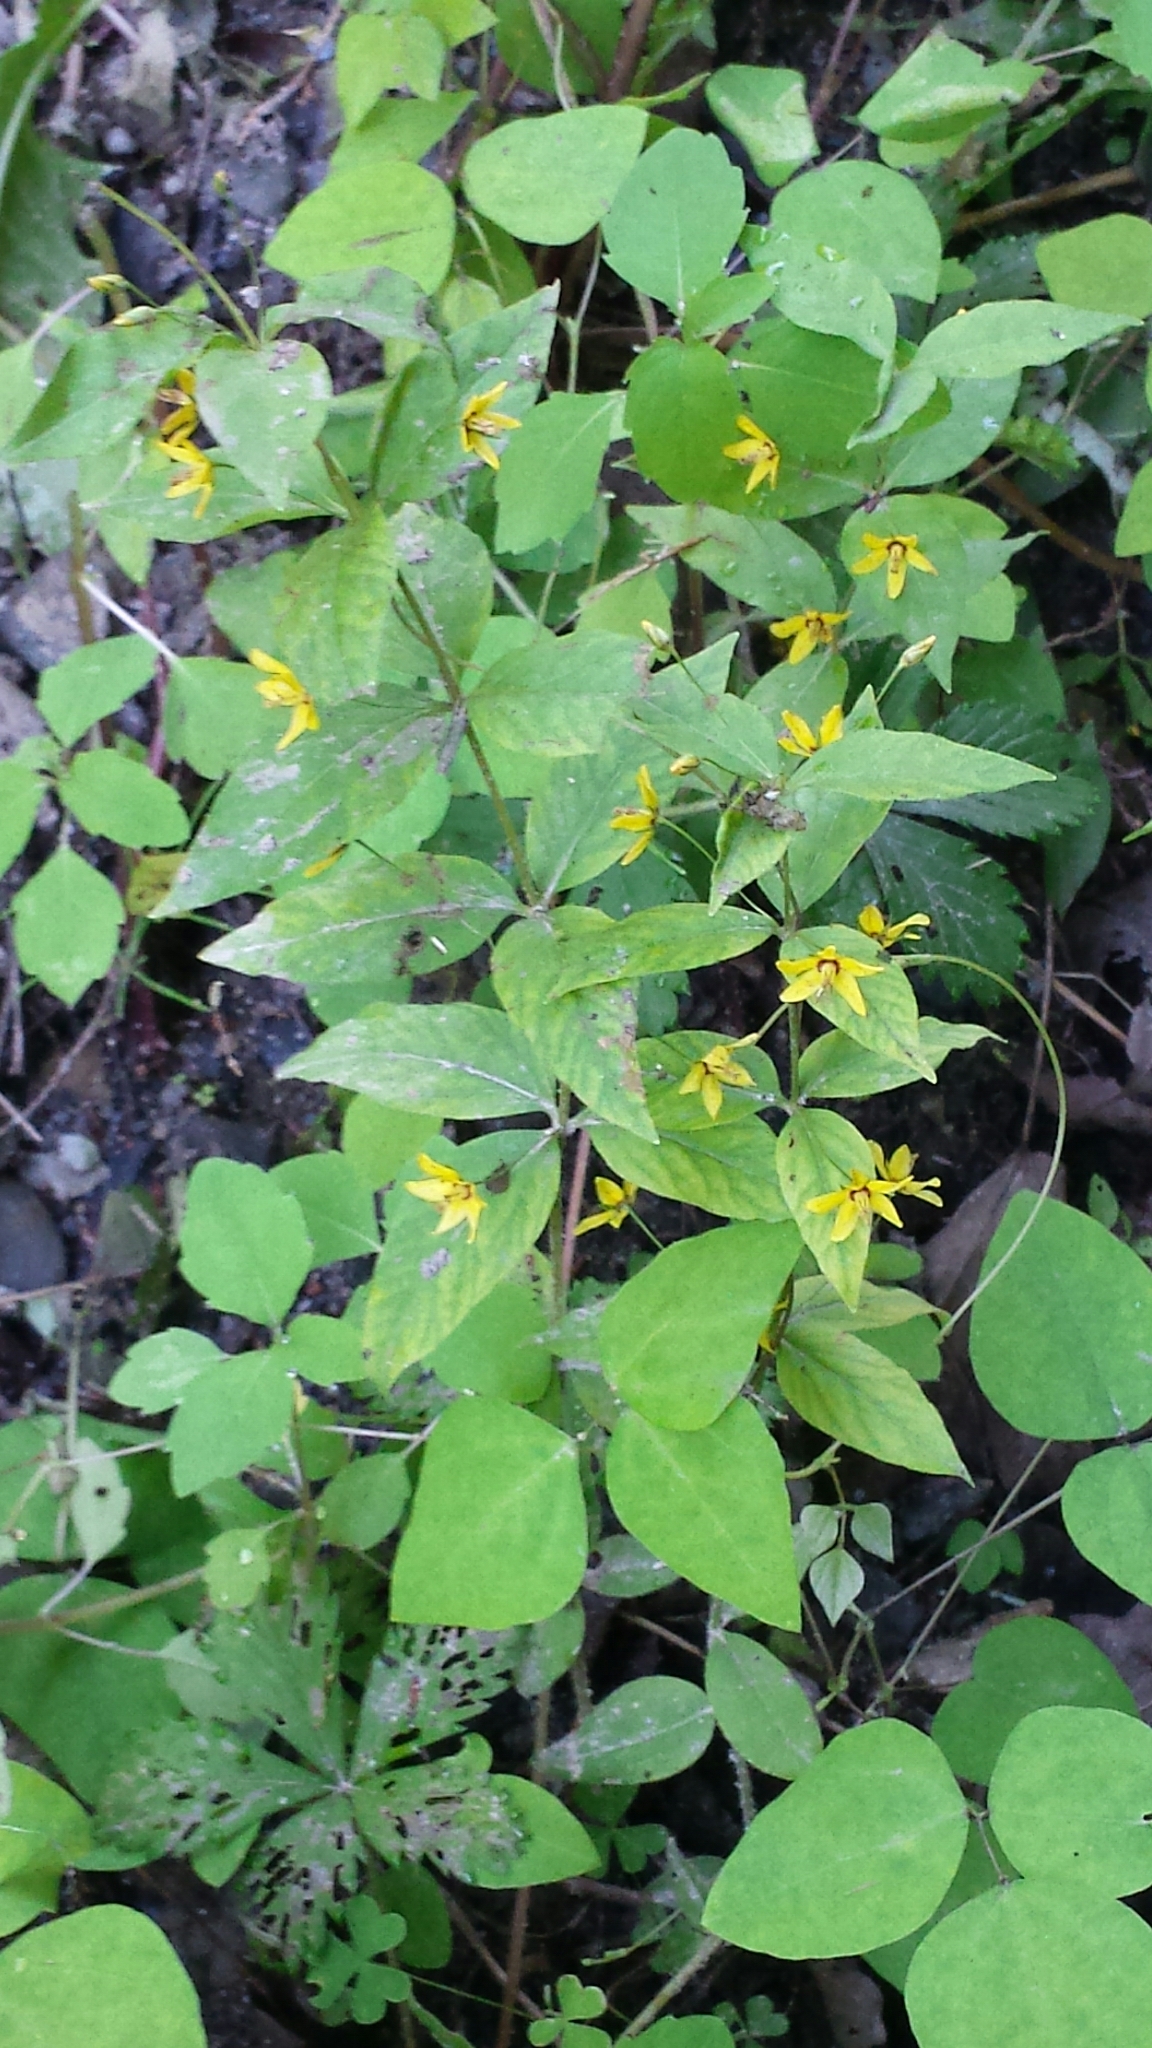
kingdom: Plantae
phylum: Tracheophyta
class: Magnoliopsida
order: Ericales
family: Primulaceae
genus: Lysimachia
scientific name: Lysimachia quadrifolia
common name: Whorled loosestrife
